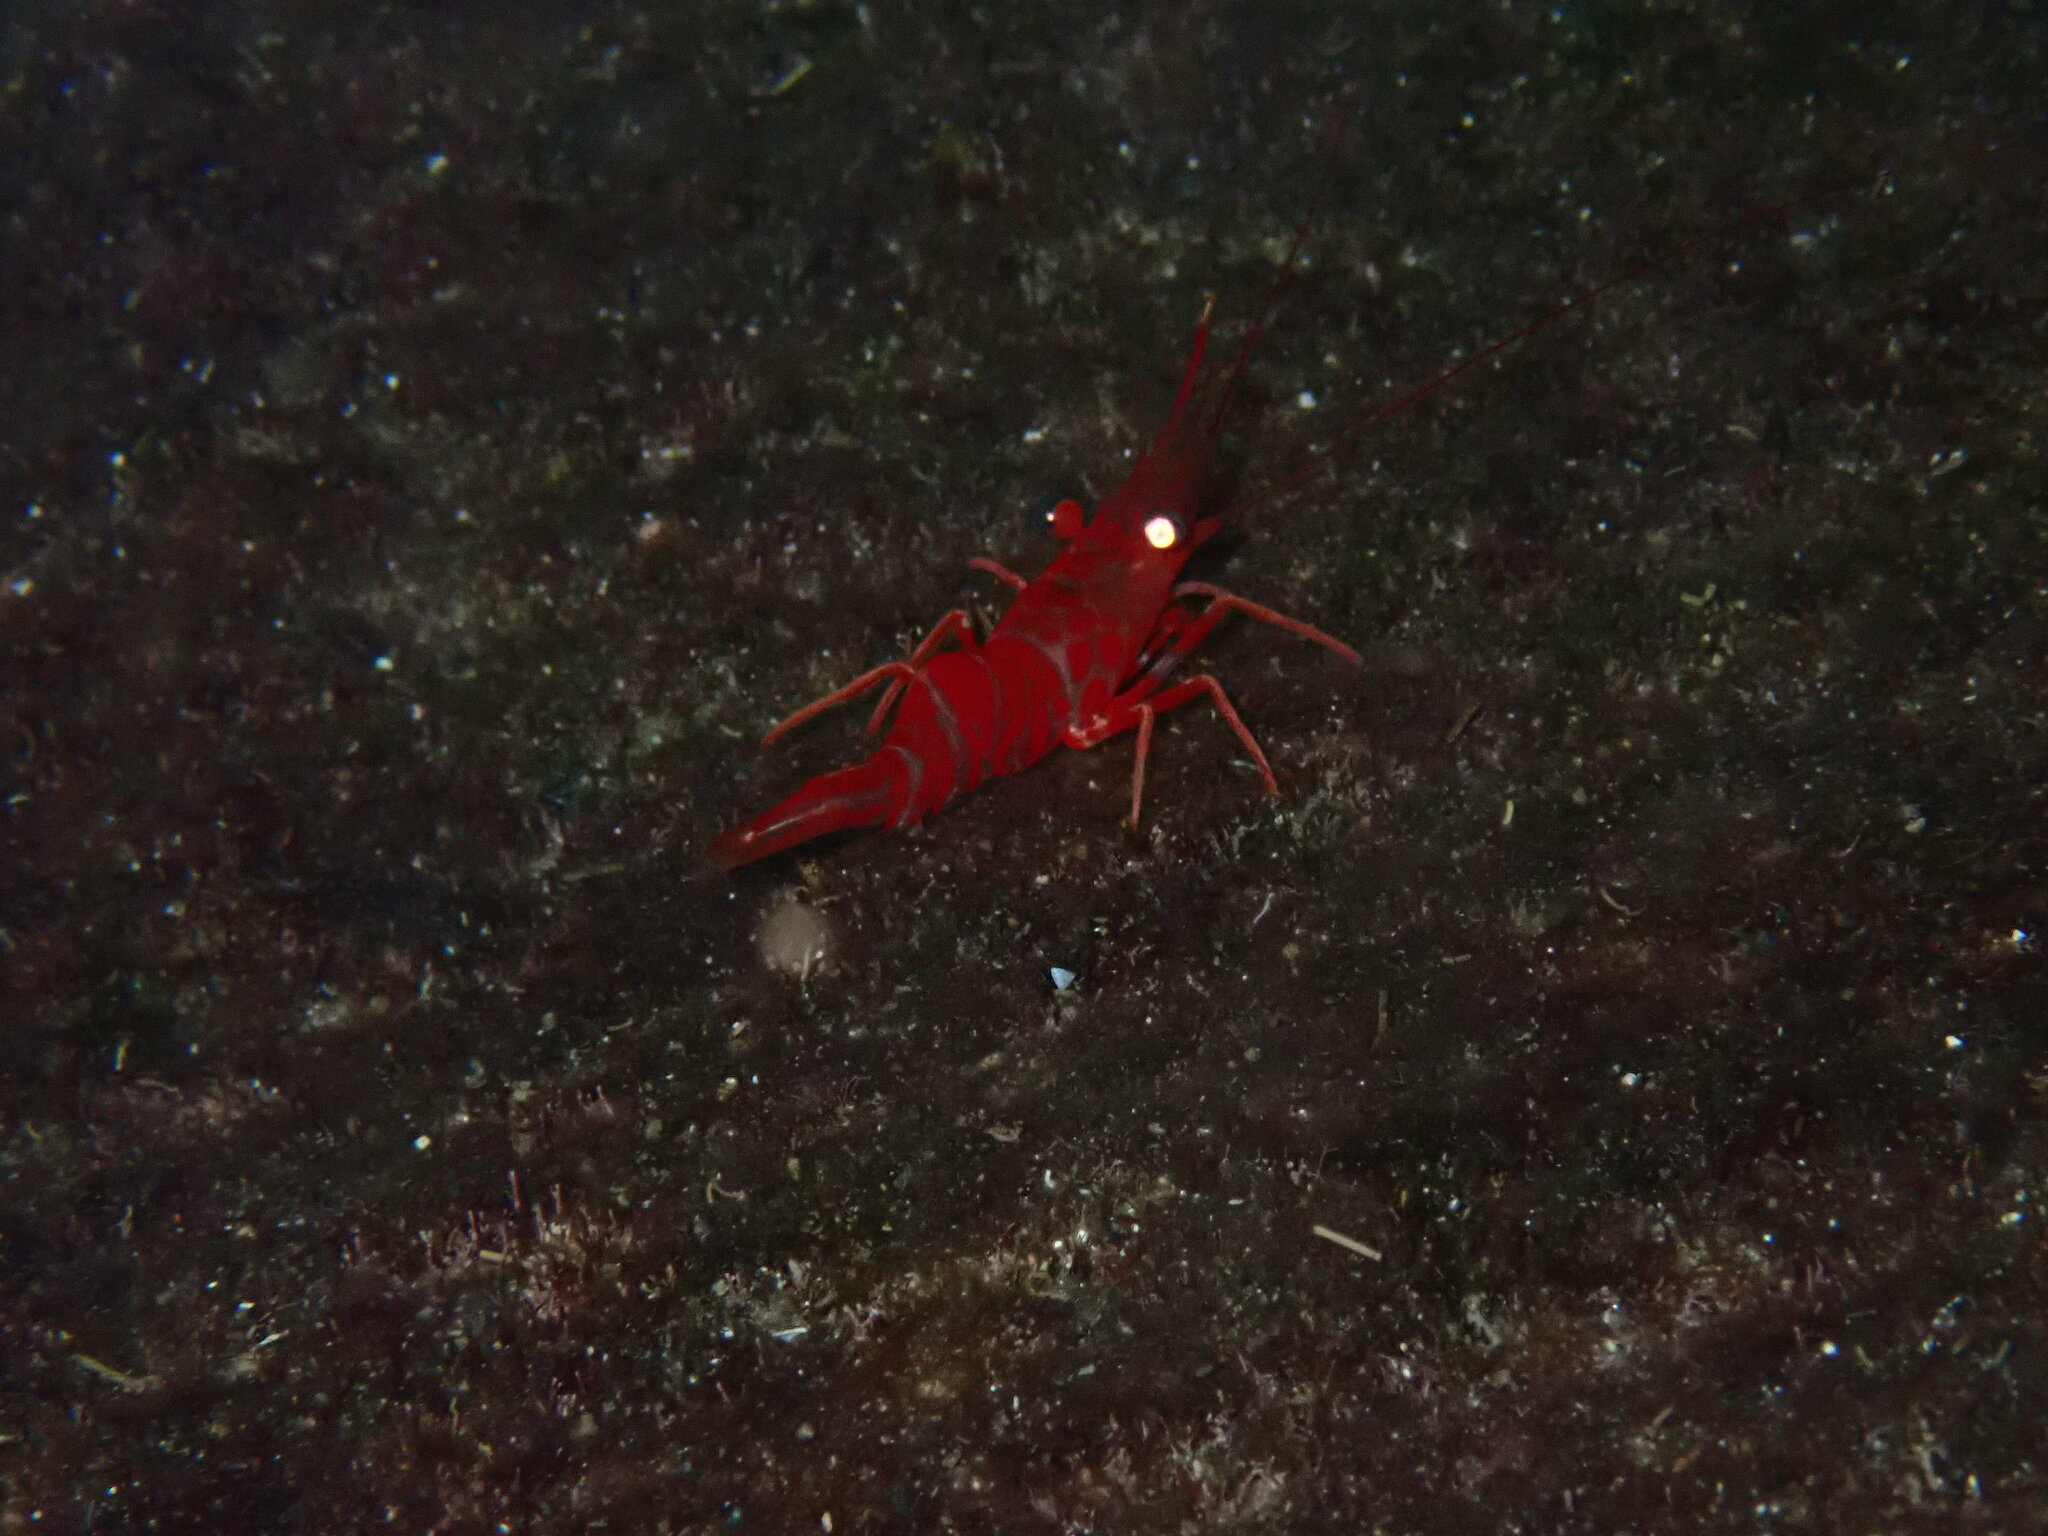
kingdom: Animalia
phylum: Arthropoda
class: Malacostraca
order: Decapoda
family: Rhynchocinetidae
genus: Cinetorhynchus
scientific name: Cinetorhynchus rigens
